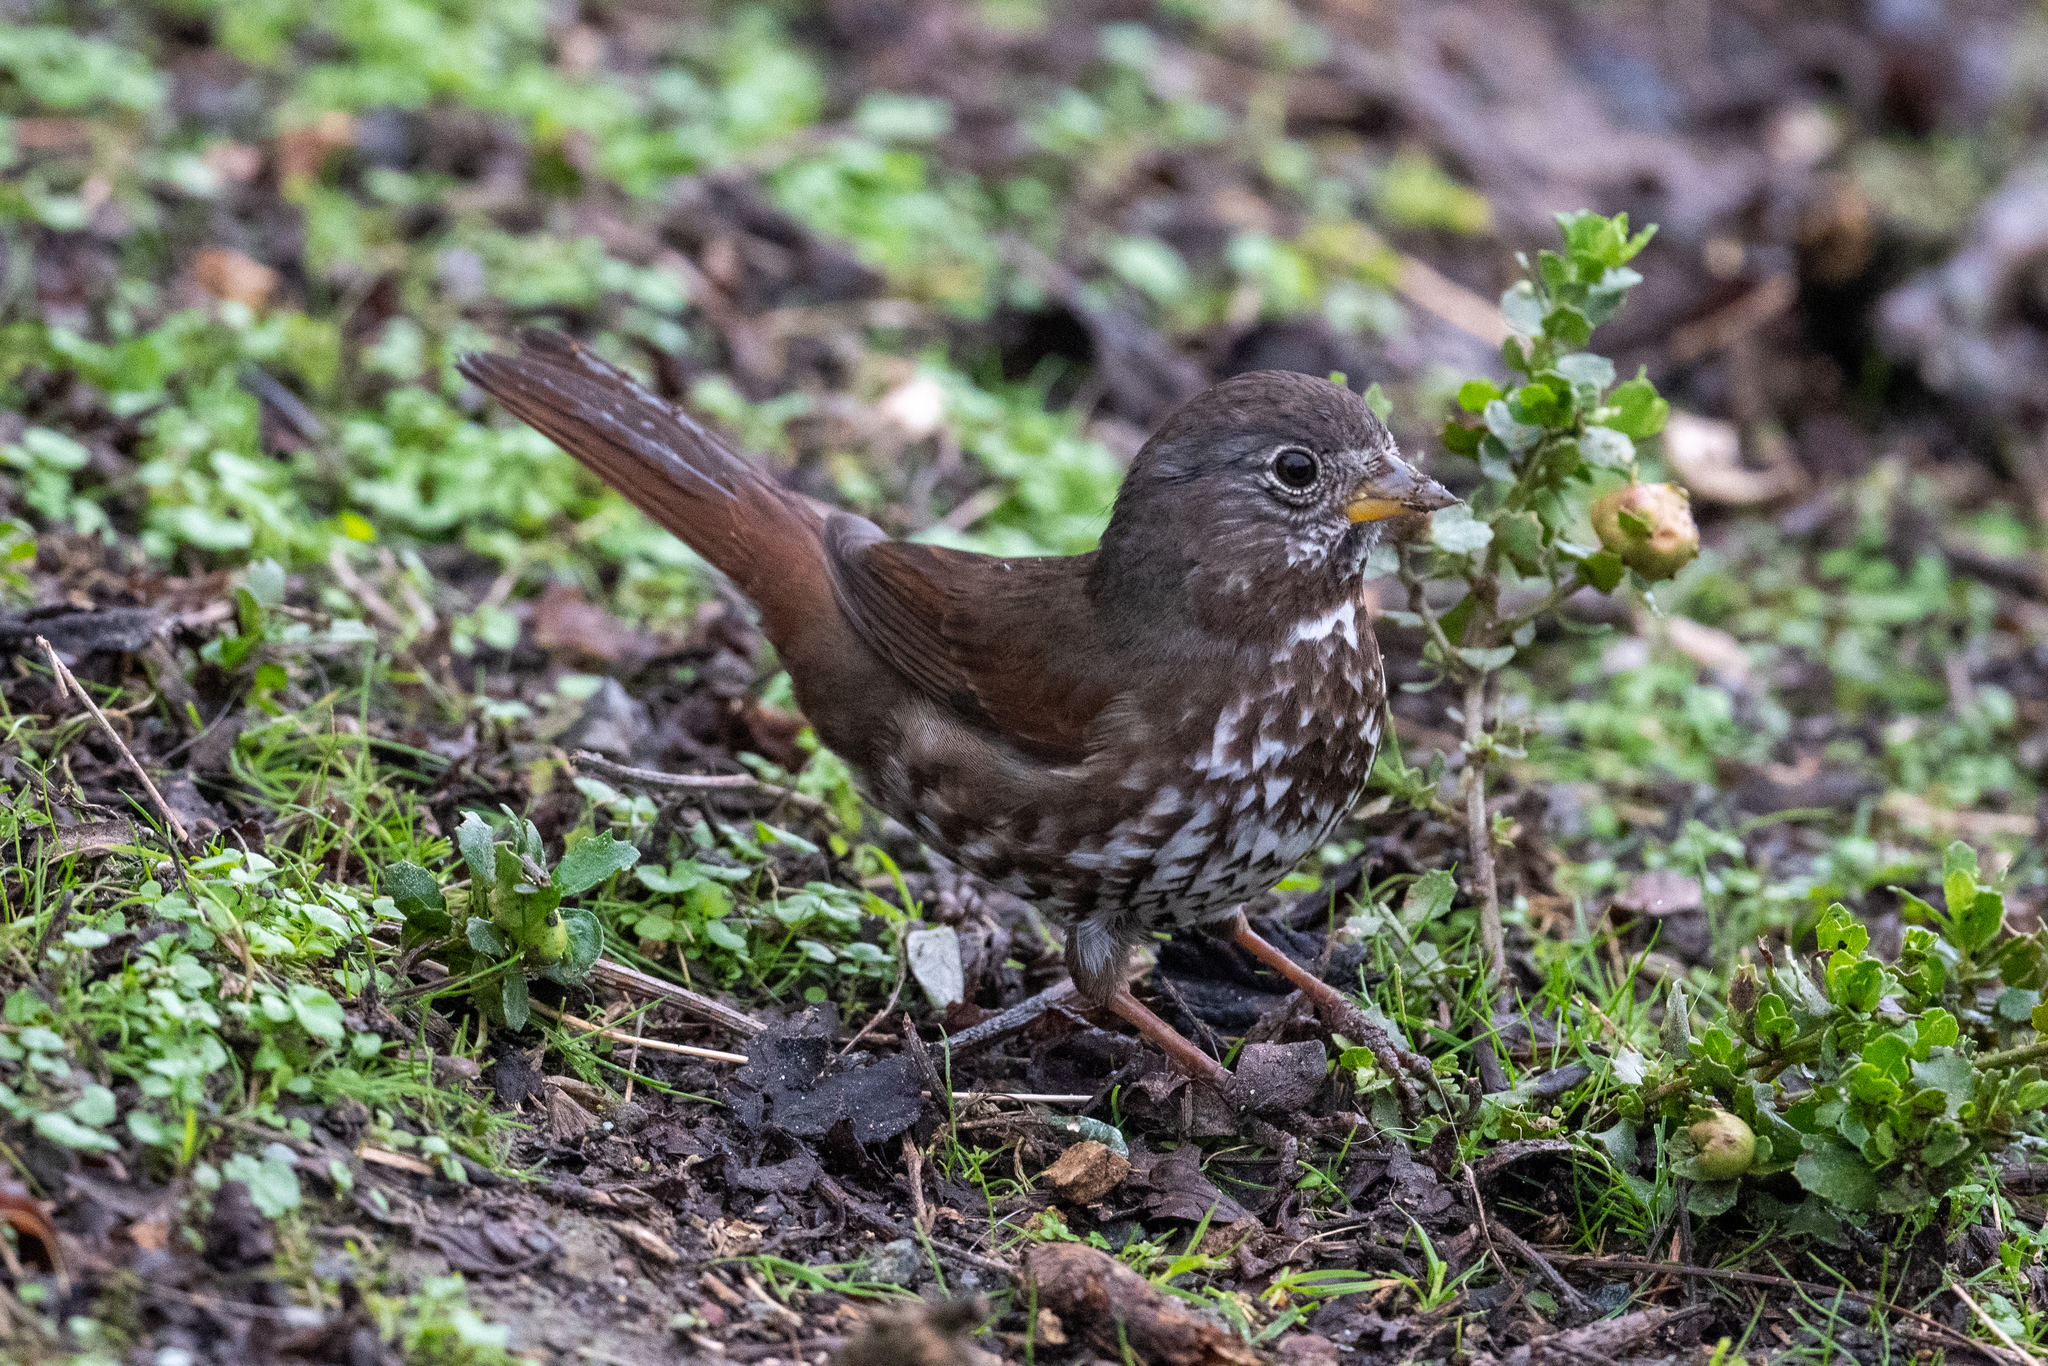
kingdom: Animalia
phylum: Chordata
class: Aves
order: Passeriformes
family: Passerellidae
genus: Passerella
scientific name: Passerella iliaca
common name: Fox sparrow
